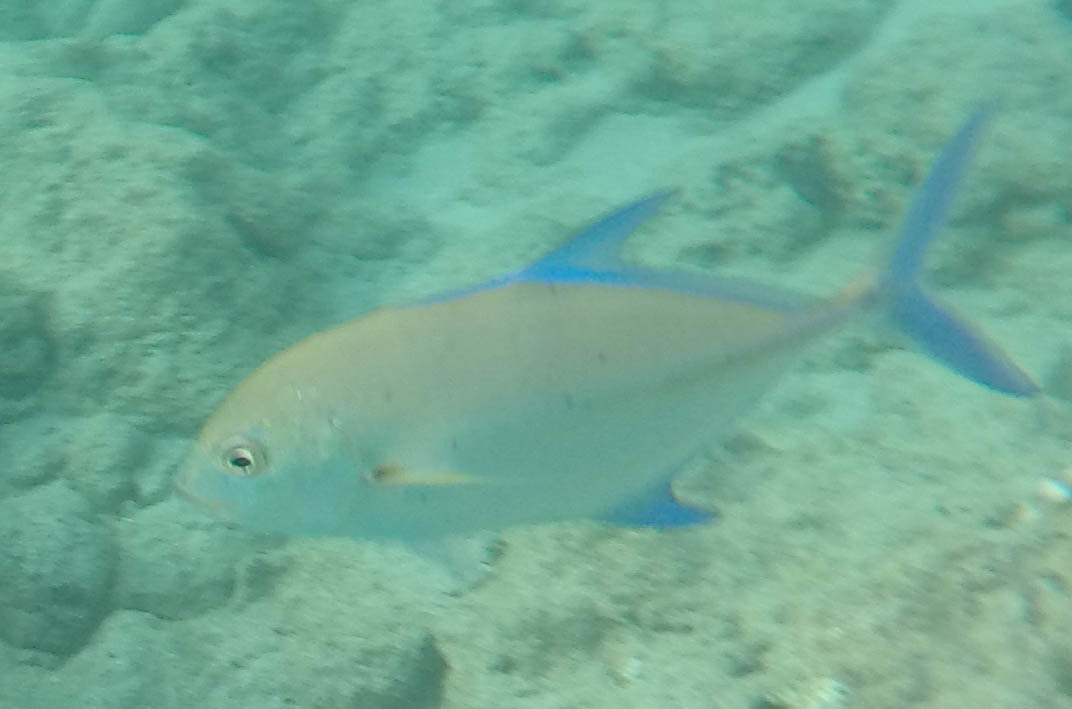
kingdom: Animalia
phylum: Chordata
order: Perciformes
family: Carangidae
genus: Caranx
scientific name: Caranx melampygus
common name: Bluefin trevally
